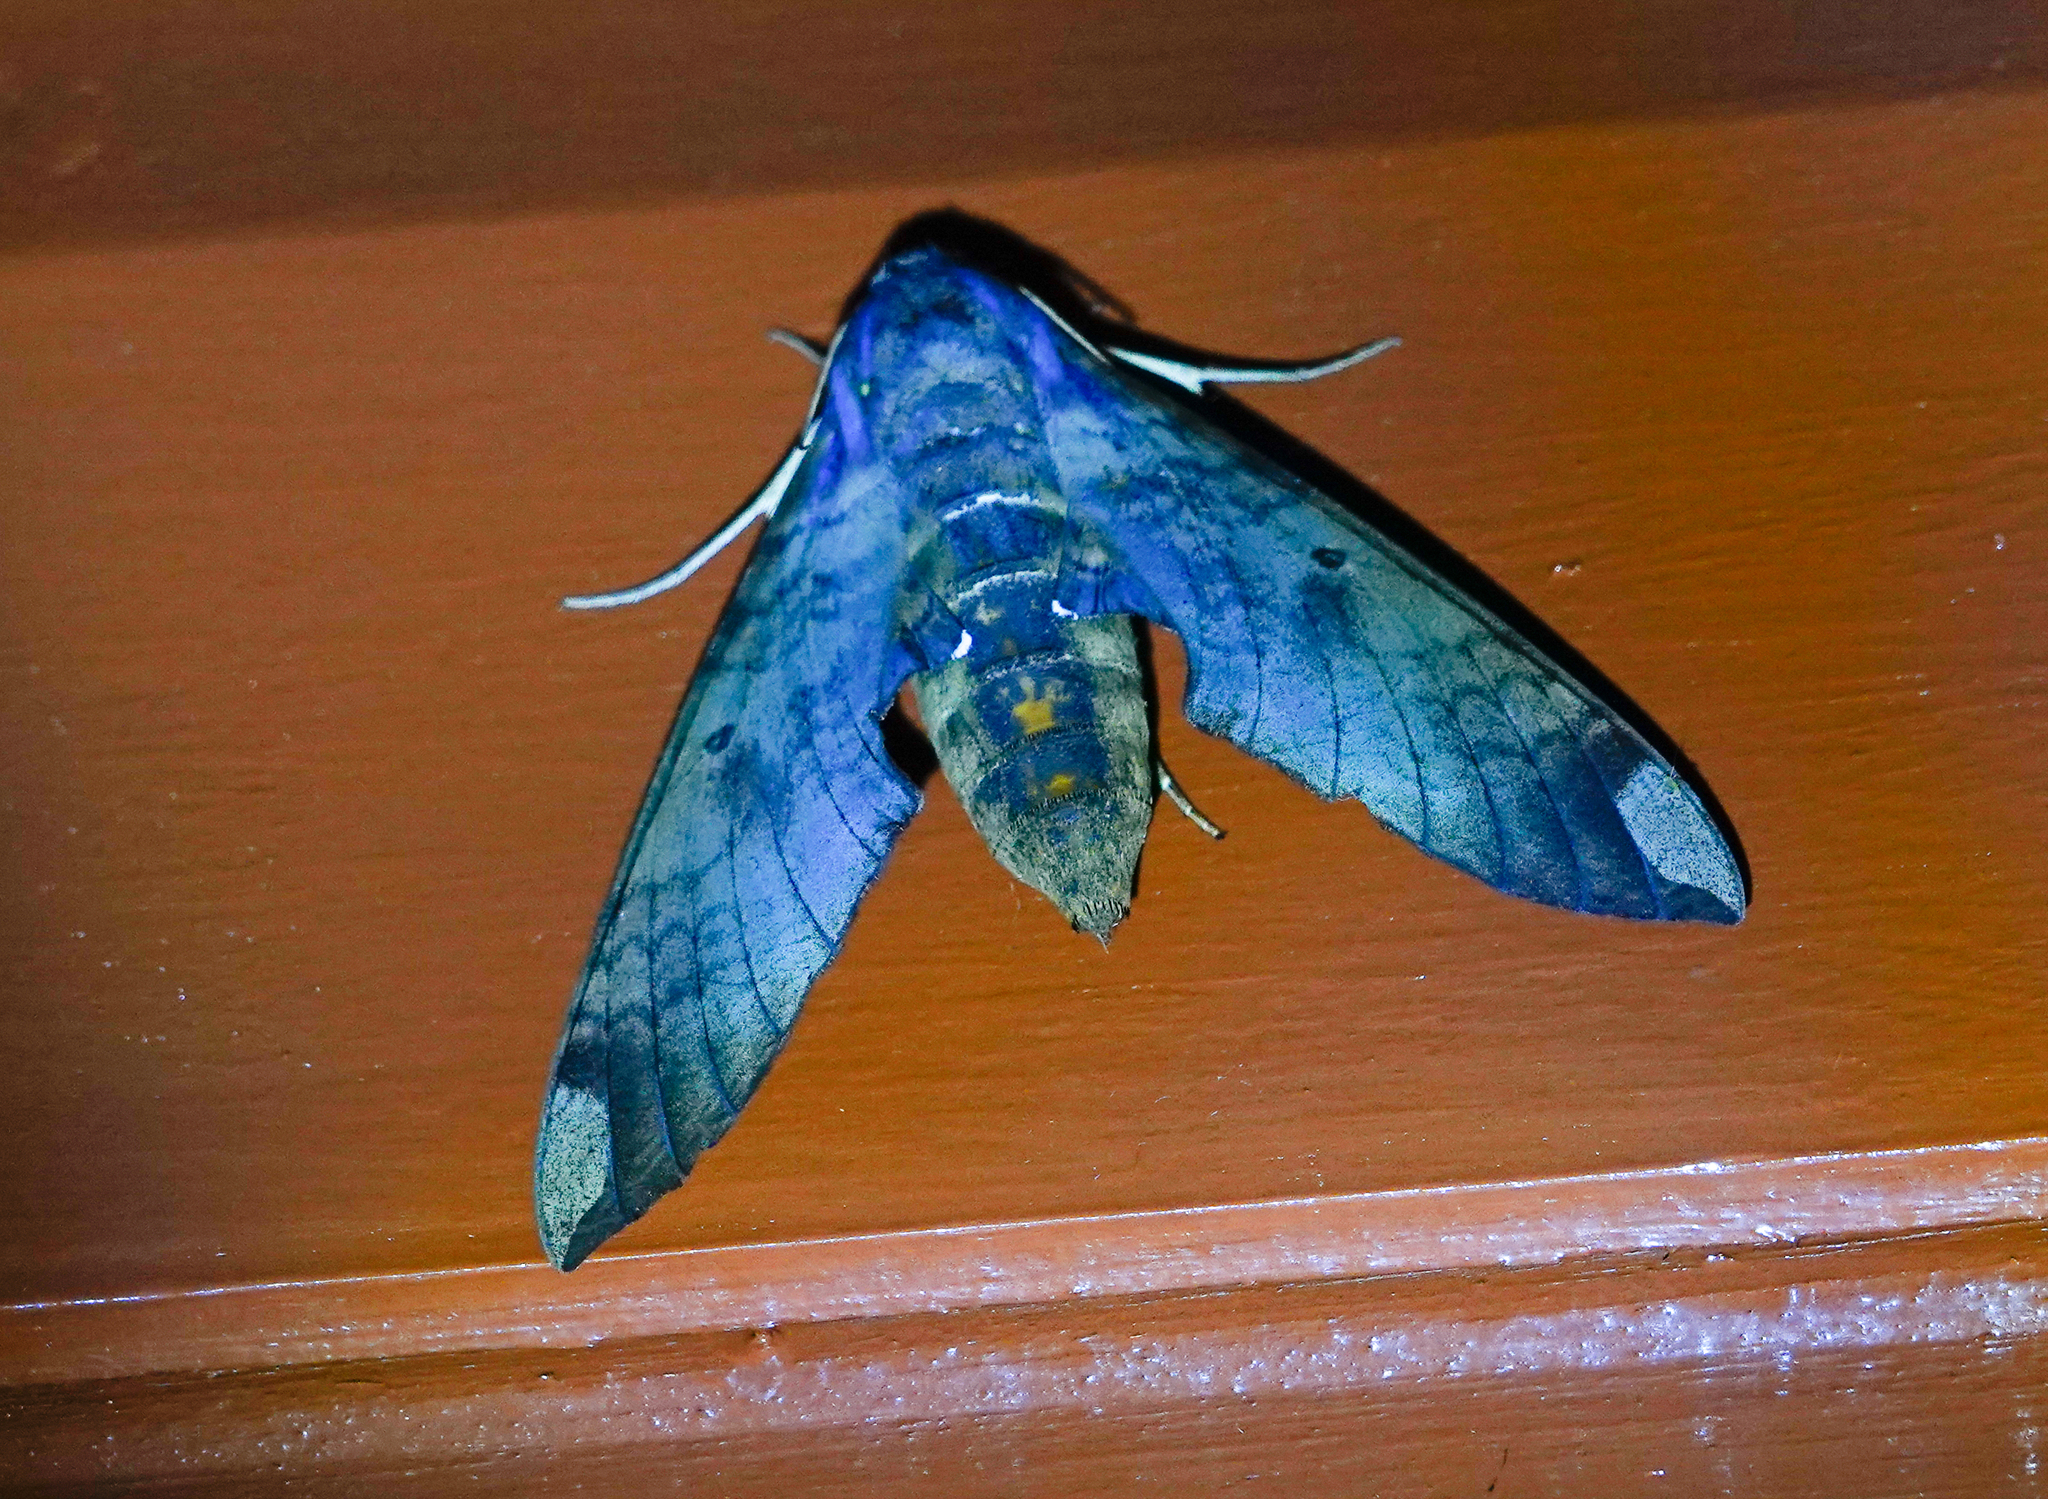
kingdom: Animalia
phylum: Arthropoda
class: Insecta
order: Lepidoptera
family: Sphingidae
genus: Pachylia
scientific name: Pachylia ficus
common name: Fig sphinx
